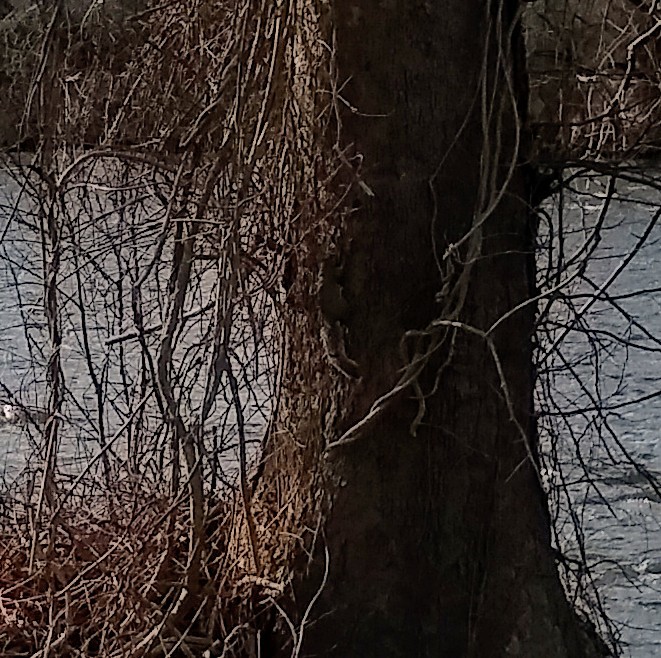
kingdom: Animalia
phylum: Chordata
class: Mammalia
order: Rodentia
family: Sciuridae
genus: Sciurus
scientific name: Sciurus carolinensis
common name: Eastern gray squirrel
